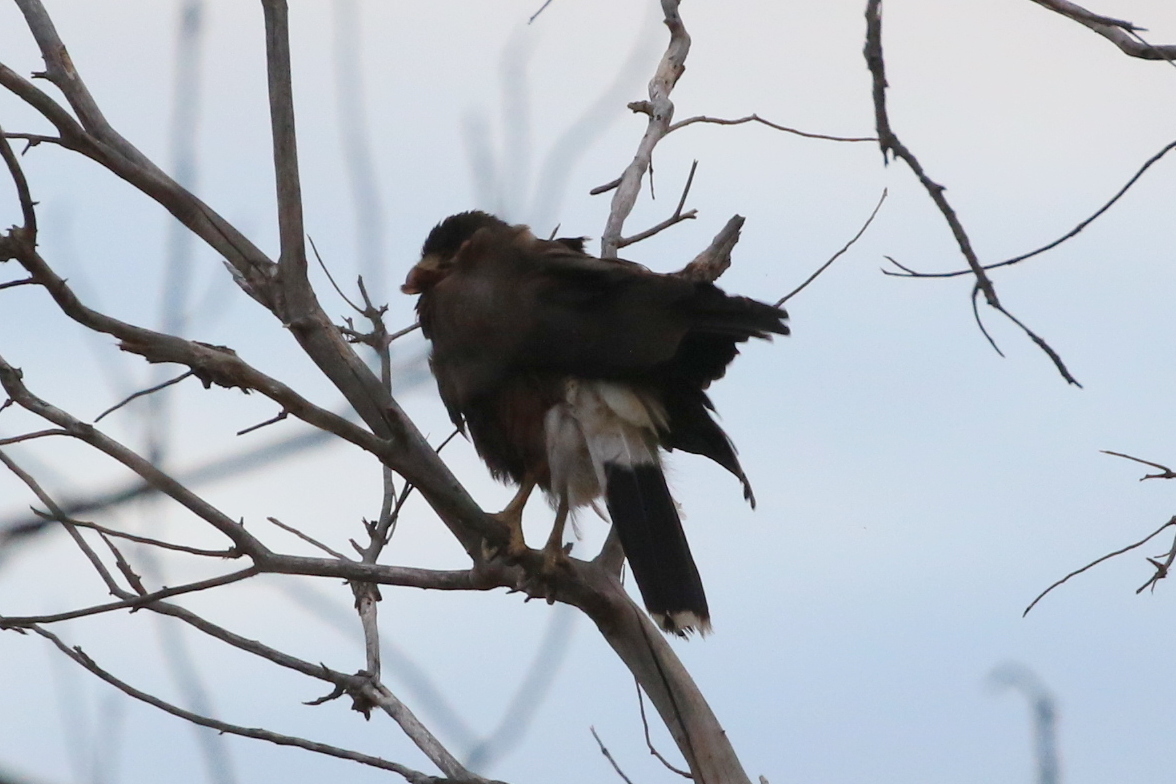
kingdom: Animalia
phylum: Chordata
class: Aves
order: Accipitriformes
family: Accipitridae
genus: Parabuteo
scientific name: Parabuteo unicinctus
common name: Harris's hawk
